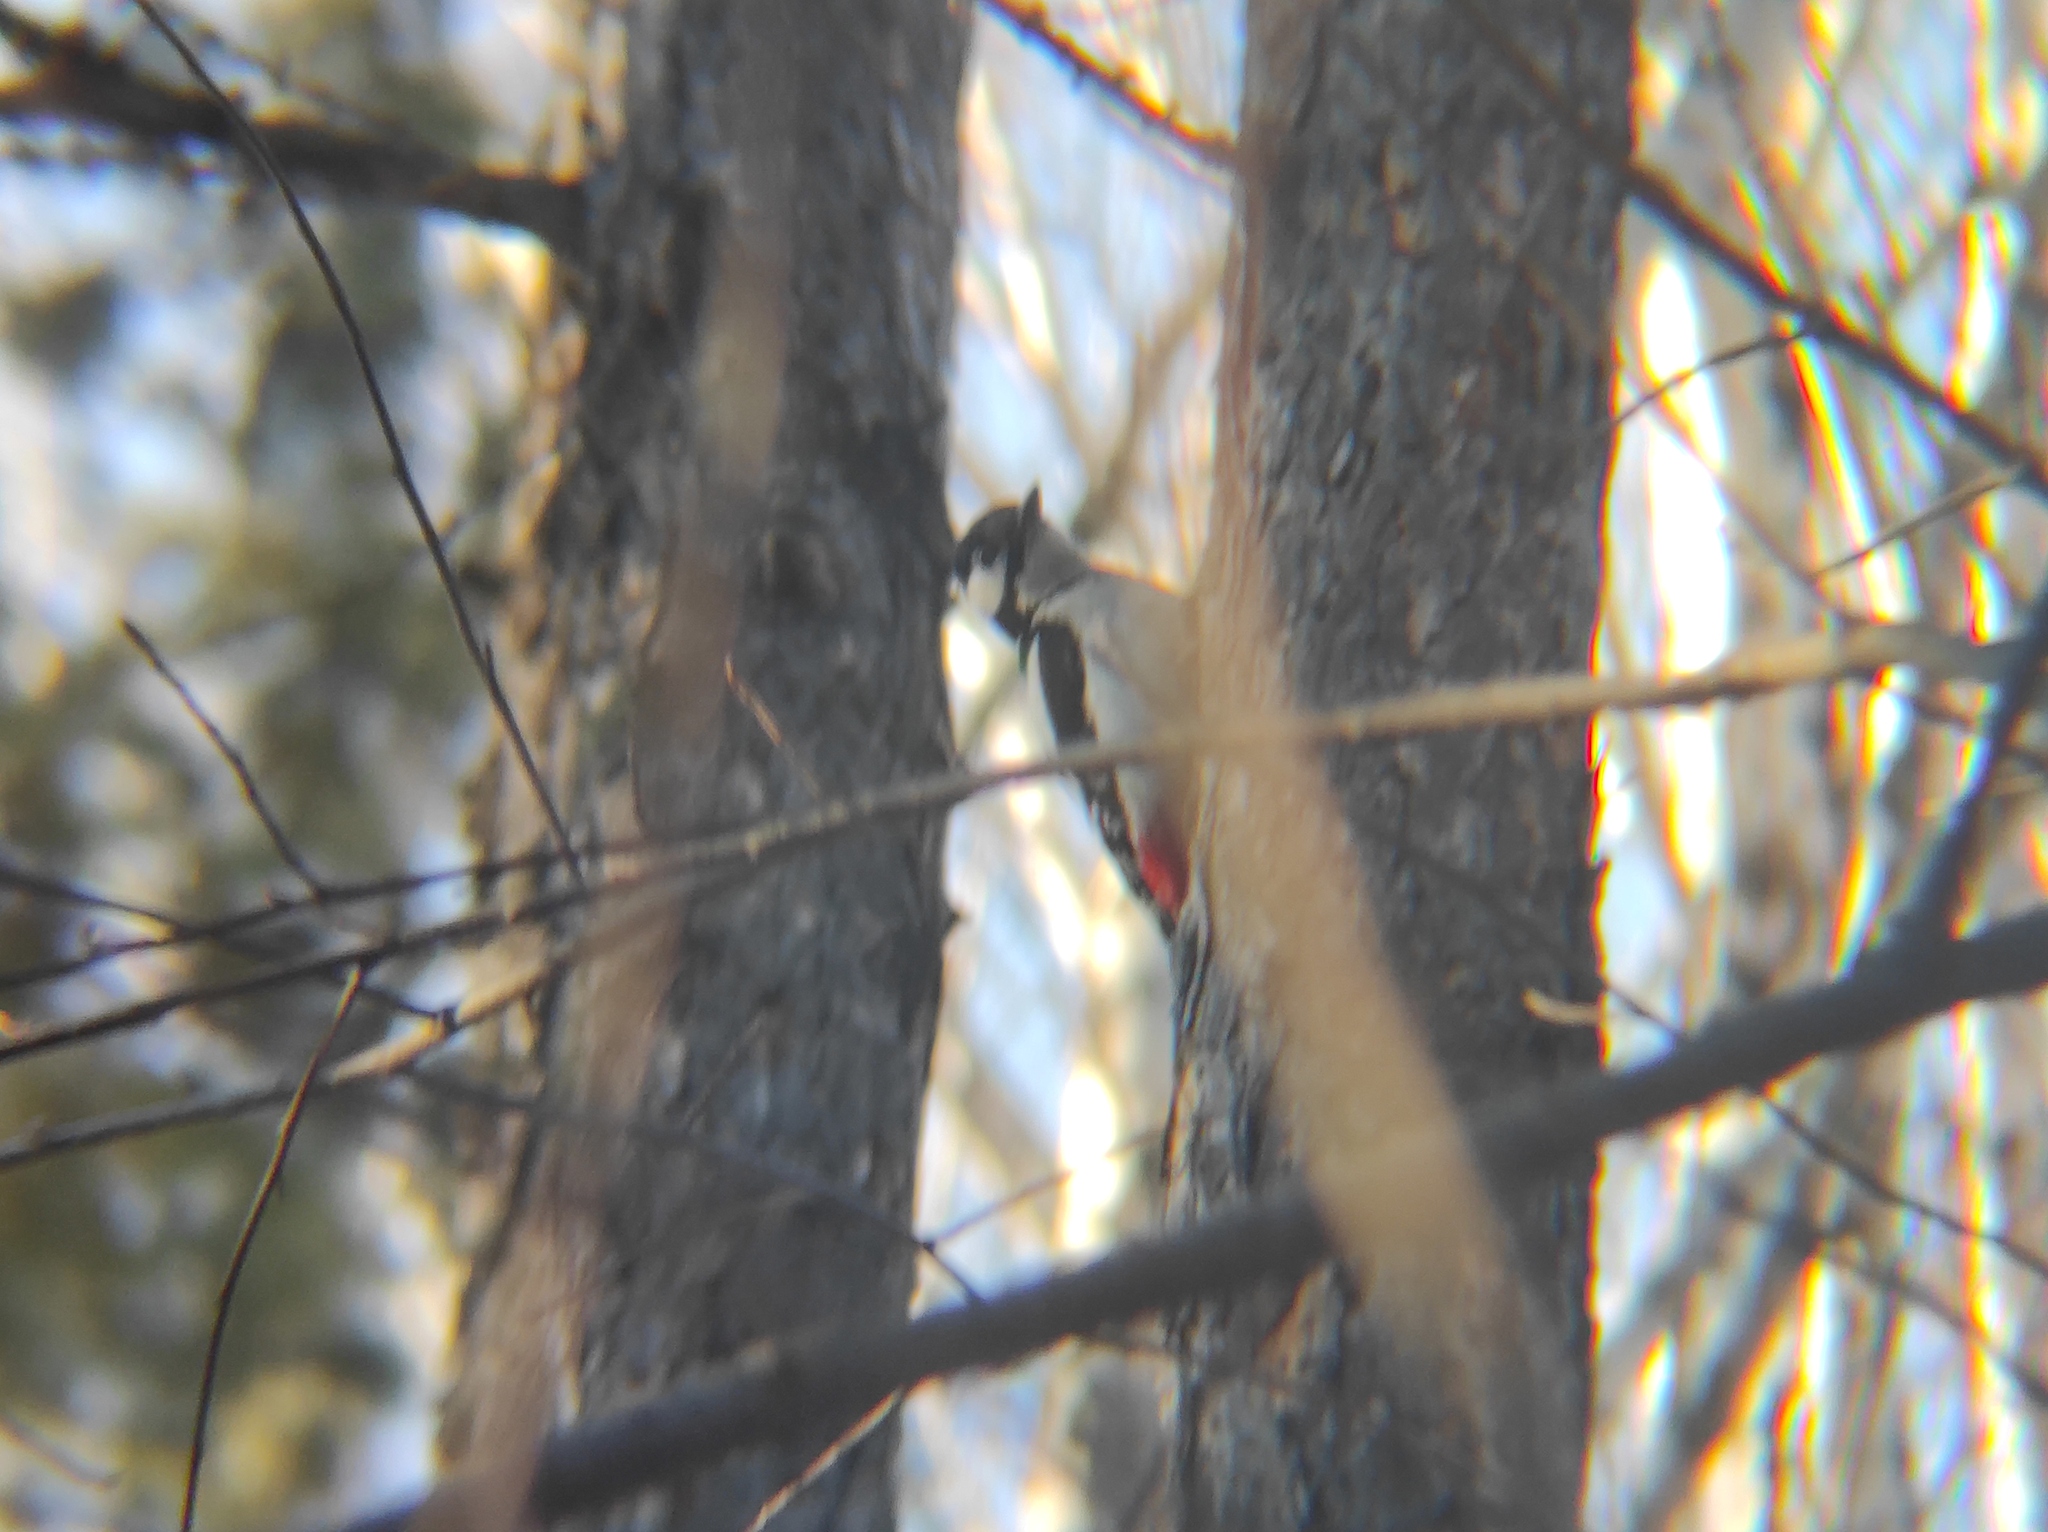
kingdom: Animalia
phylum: Chordata
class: Aves
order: Piciformes
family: Picidae
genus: Dendrocopos
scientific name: Dendrocopos major
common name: Great spotted woodpecker
